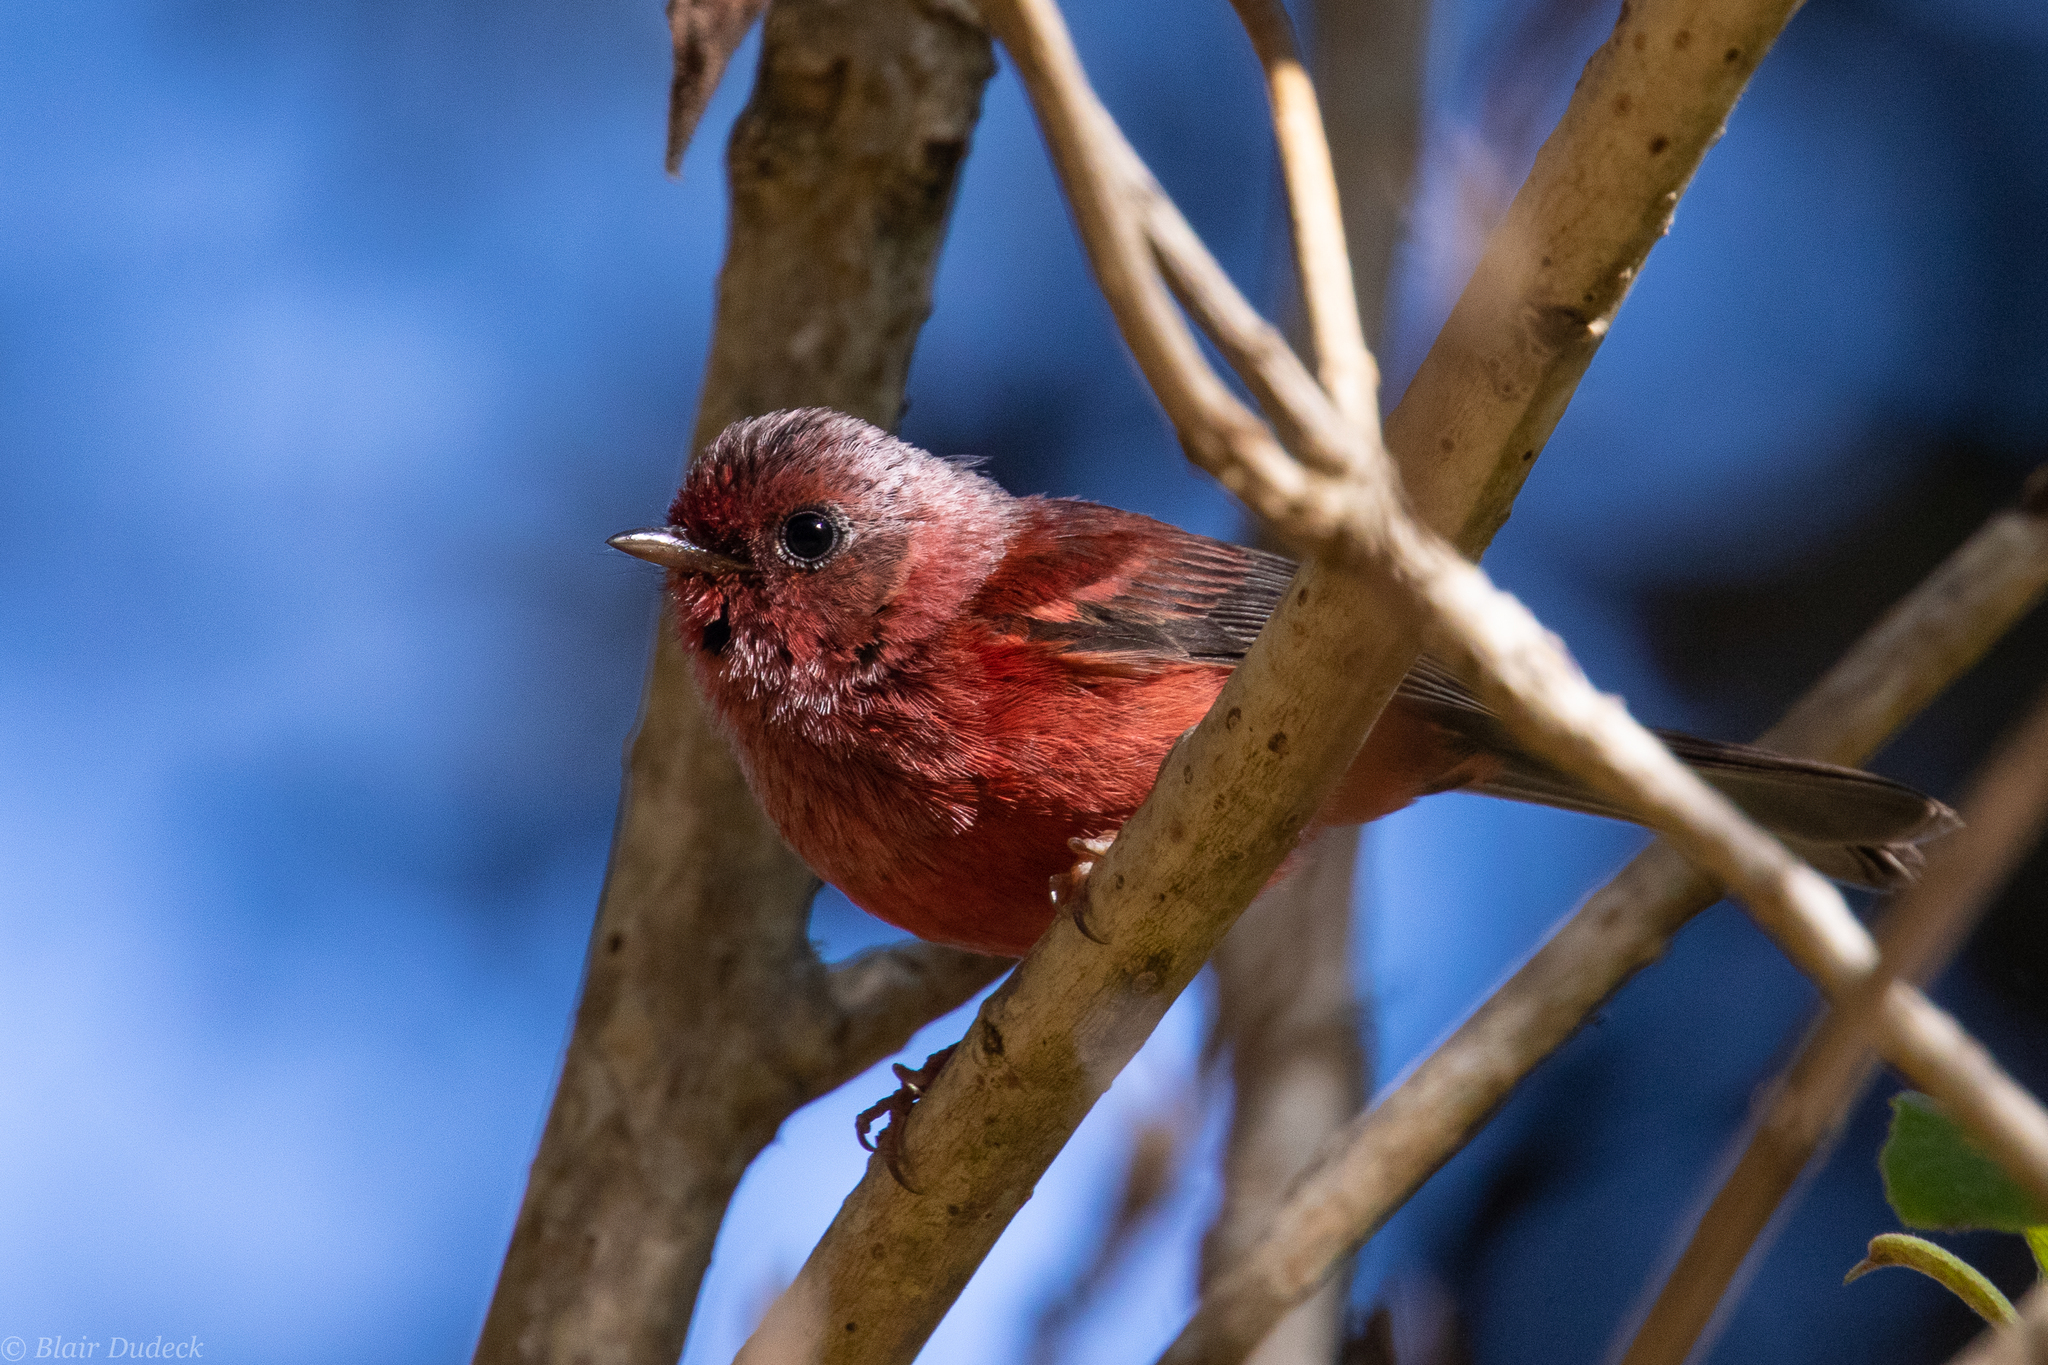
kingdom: Animalia
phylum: Chordata
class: Aves
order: Passeriformes
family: Parulidae
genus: Cardellina
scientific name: Cardellina versicolor
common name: Pink-headed warbler
